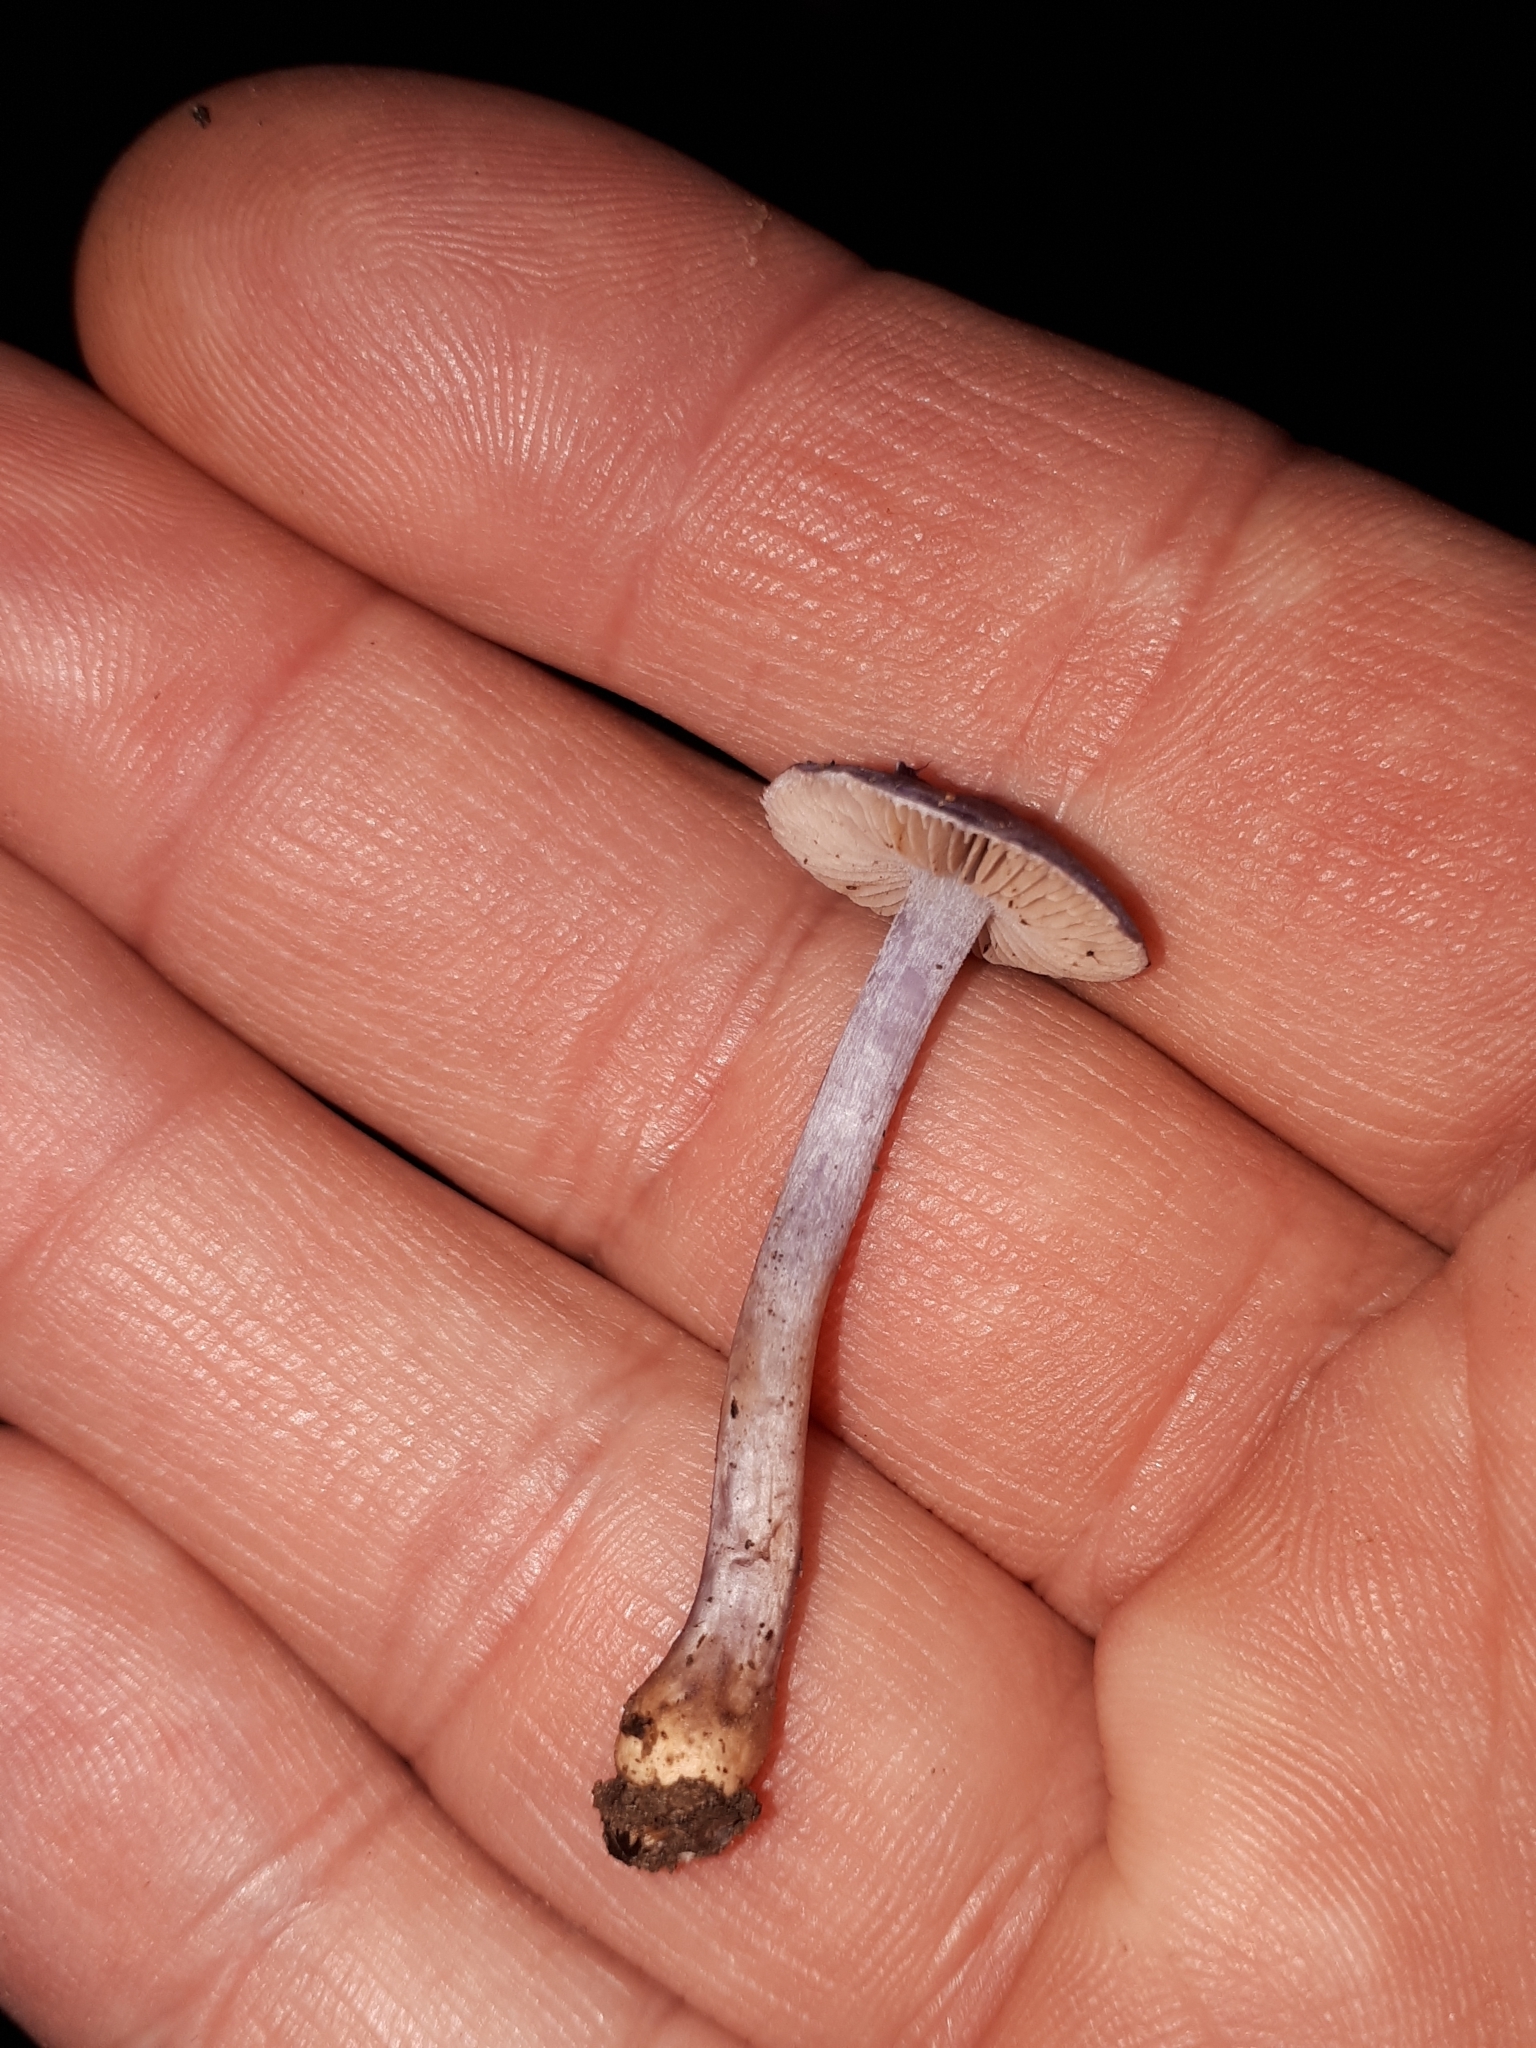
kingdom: Fungi
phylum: Basidiomycota
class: Agaricomycetes
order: Agaricales
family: Inocybaceae
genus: Inocybe
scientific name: Inocybe euviolacea
